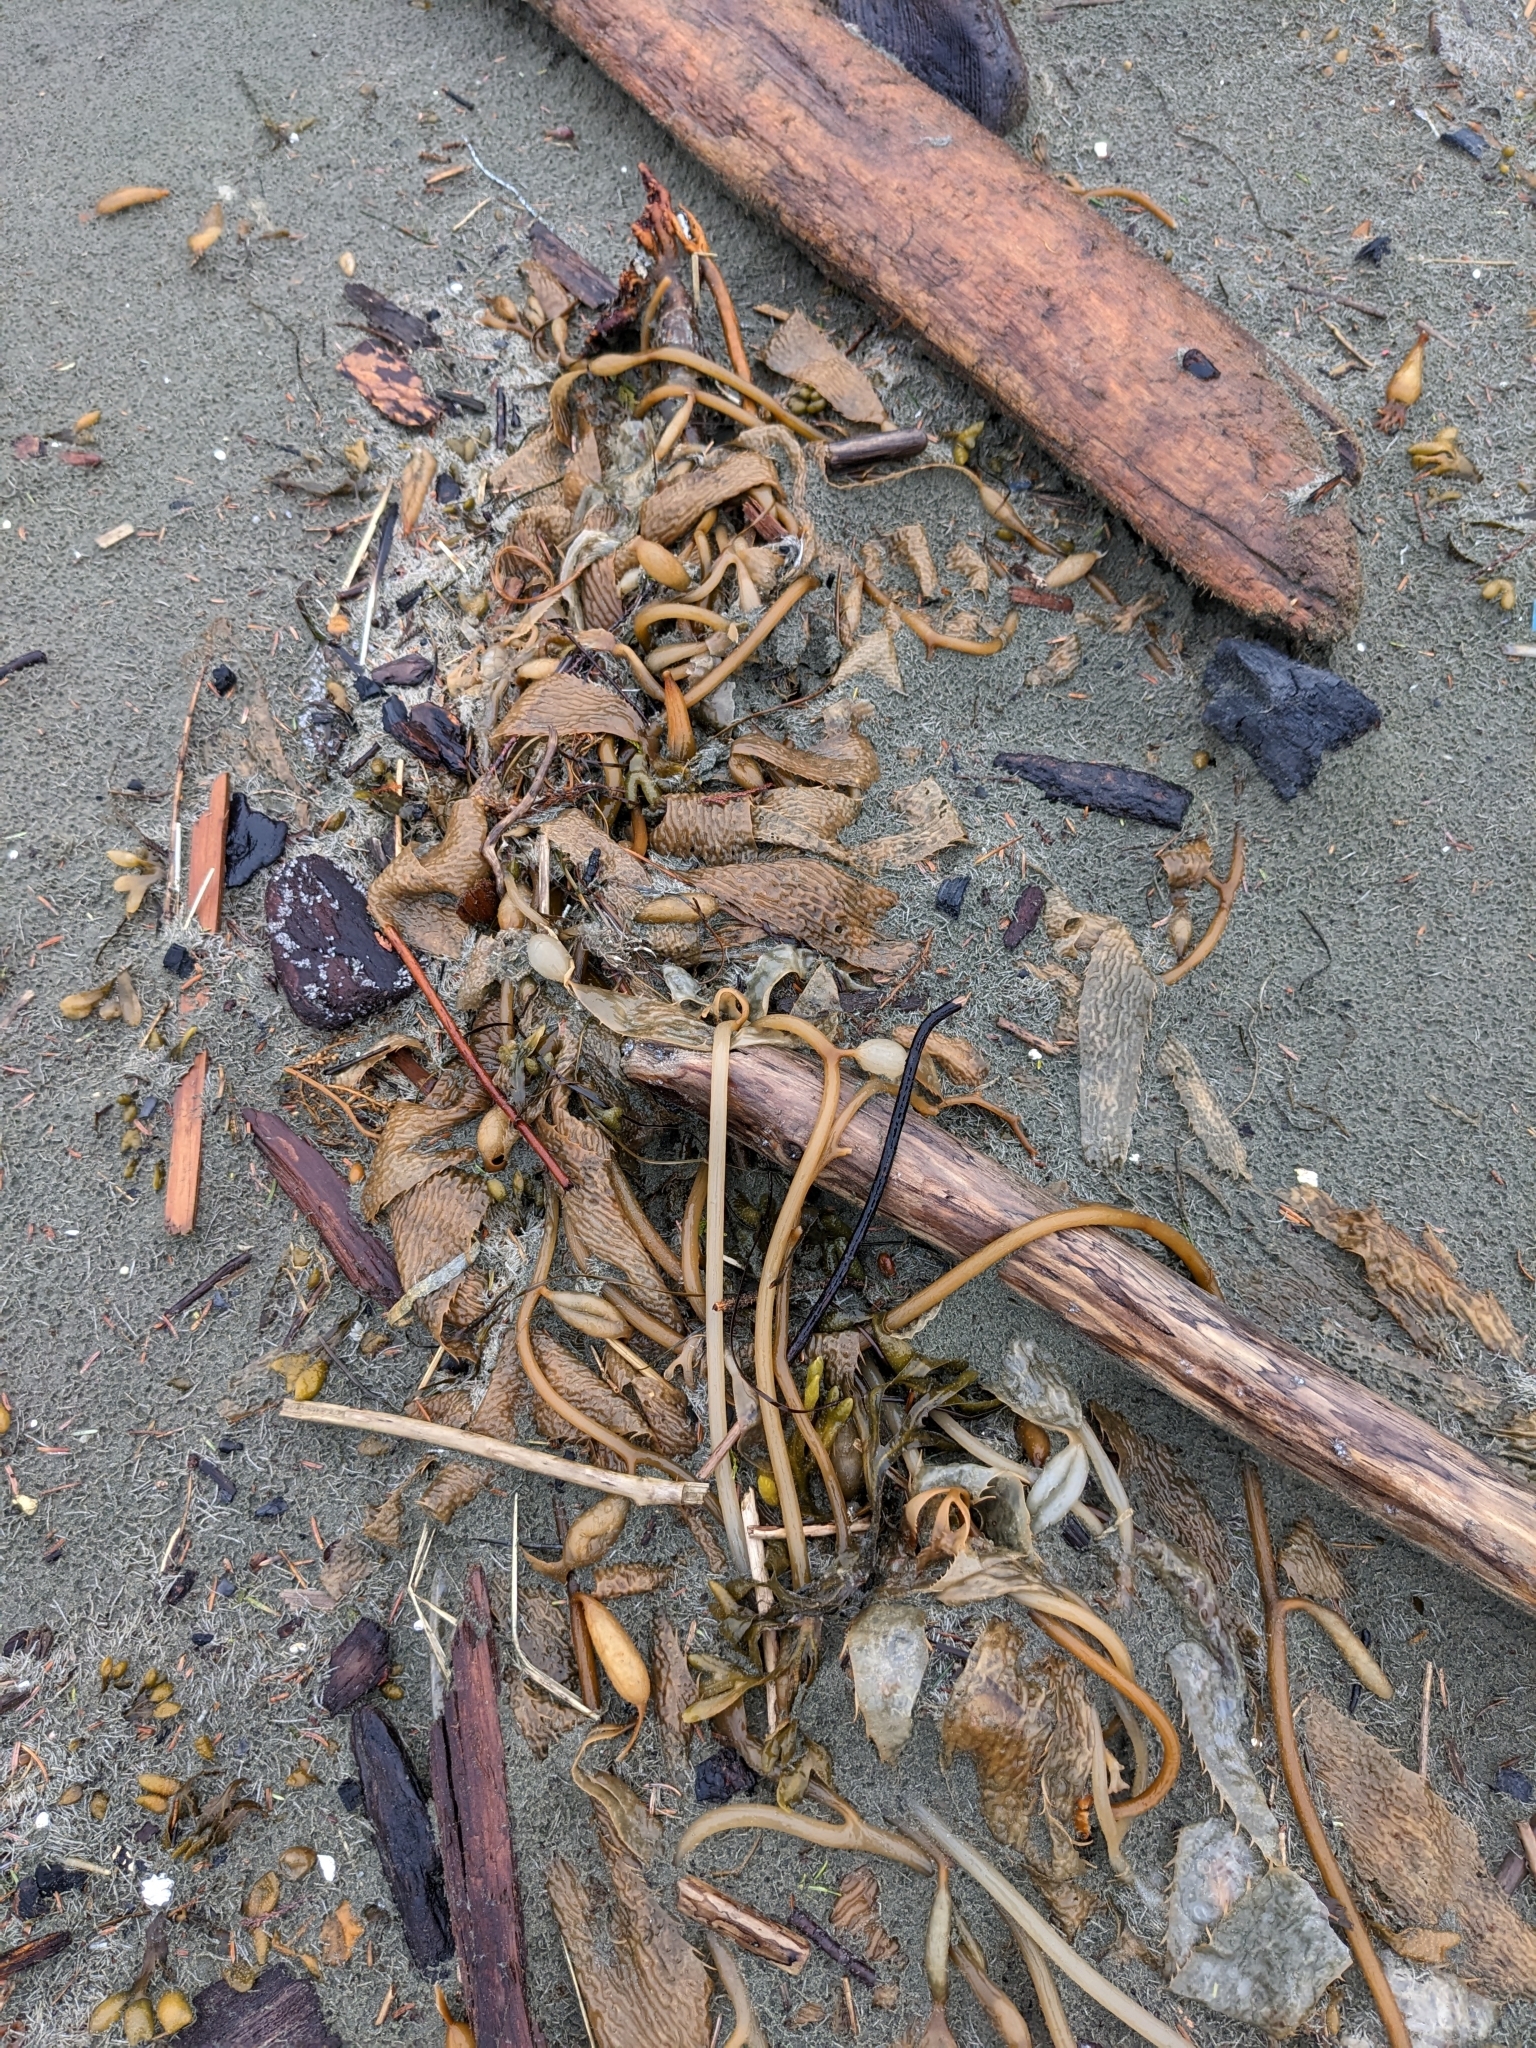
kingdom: Chromista
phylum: Ochrophyta
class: Phaeophyceae
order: Laminariales
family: Laminariaceae
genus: Macrocystis
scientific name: Macrocystis pyrifera
